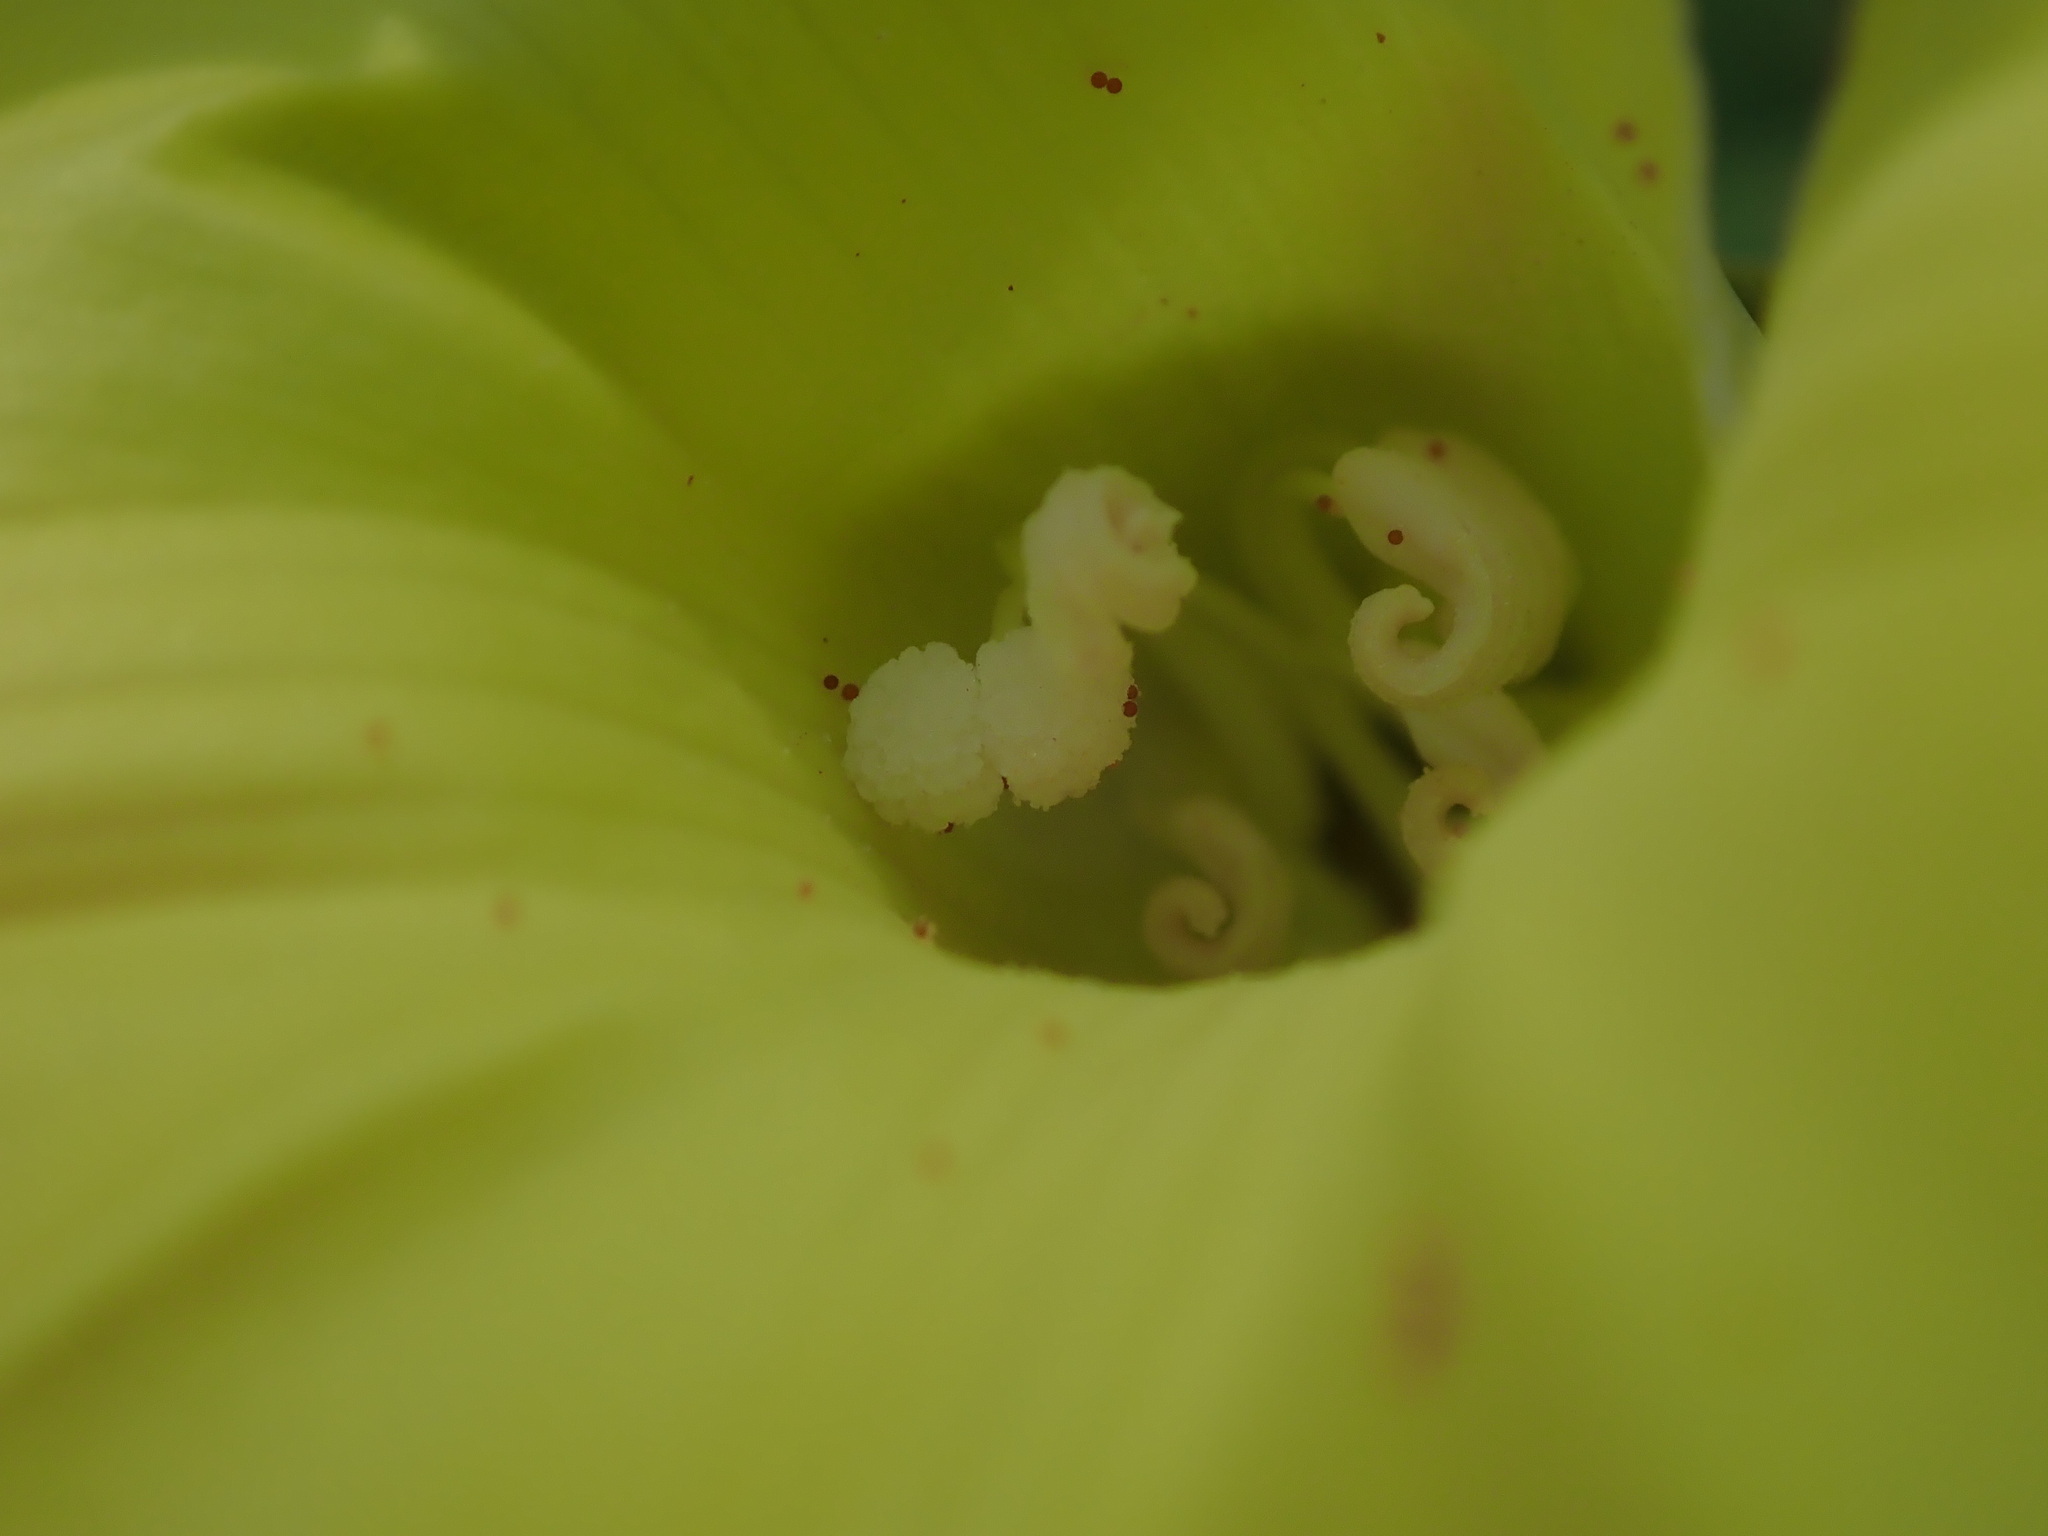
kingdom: Plantae
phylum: Tracheophyta
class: Magnoliopsida
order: Solanales
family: Convolvulaceae
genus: Distimake
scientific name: Distimake
